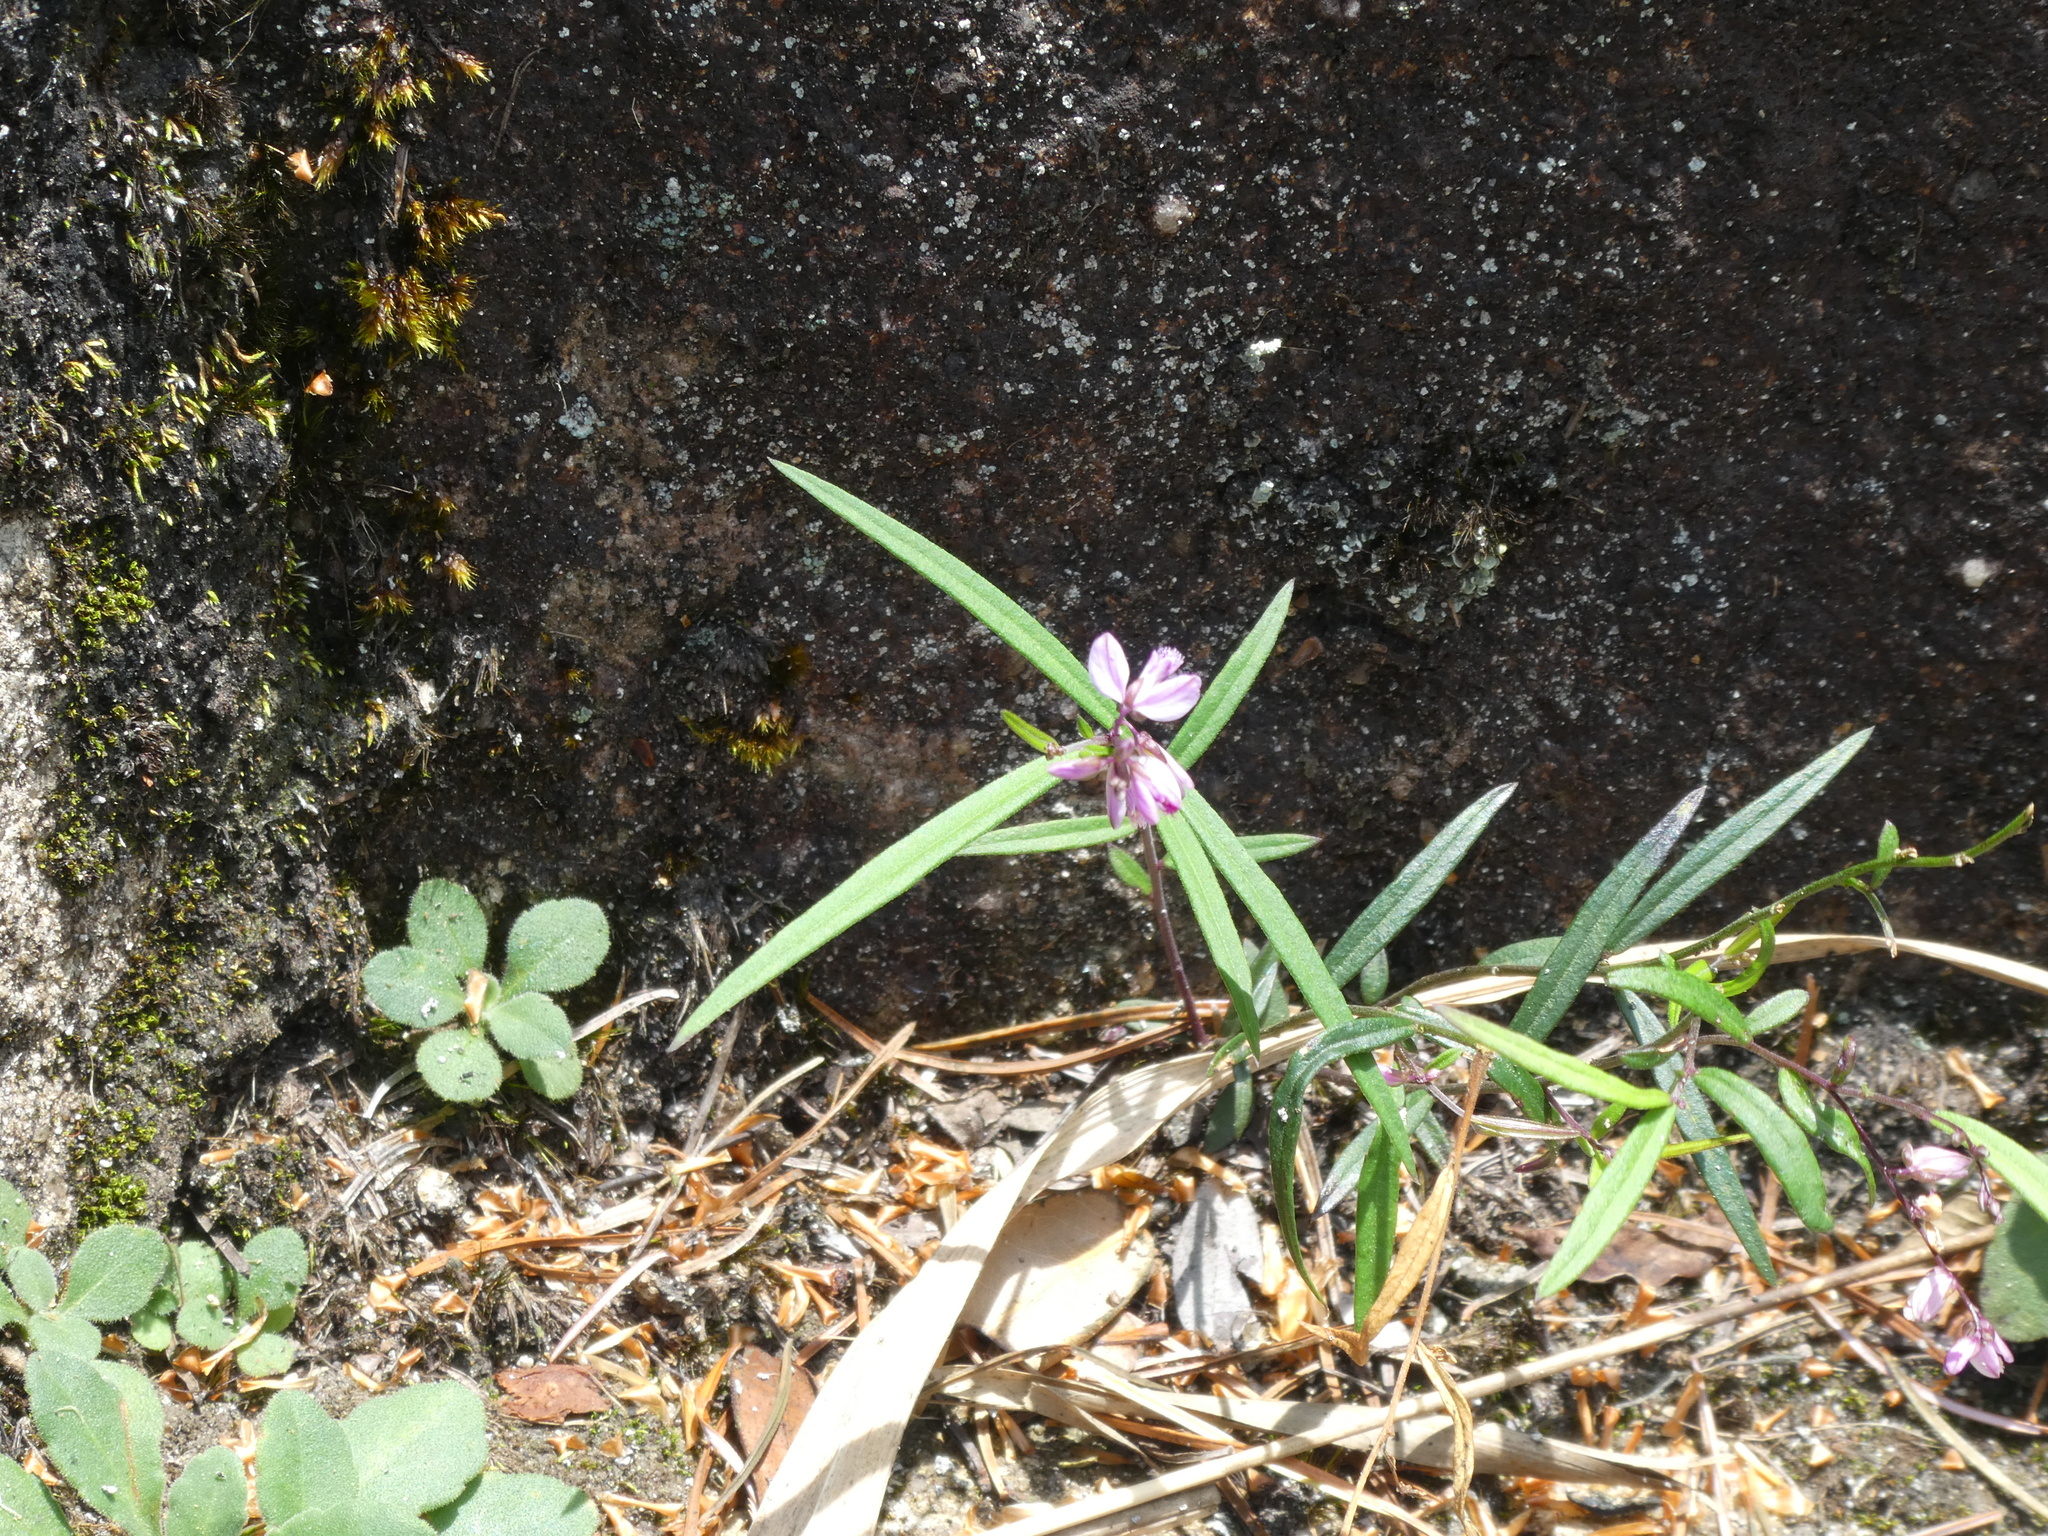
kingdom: Plantae
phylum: Tracheophyta
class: Magnoliopsida
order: Fabales
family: Polygalaceae
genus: Polygala
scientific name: Polygala hongkongensis
